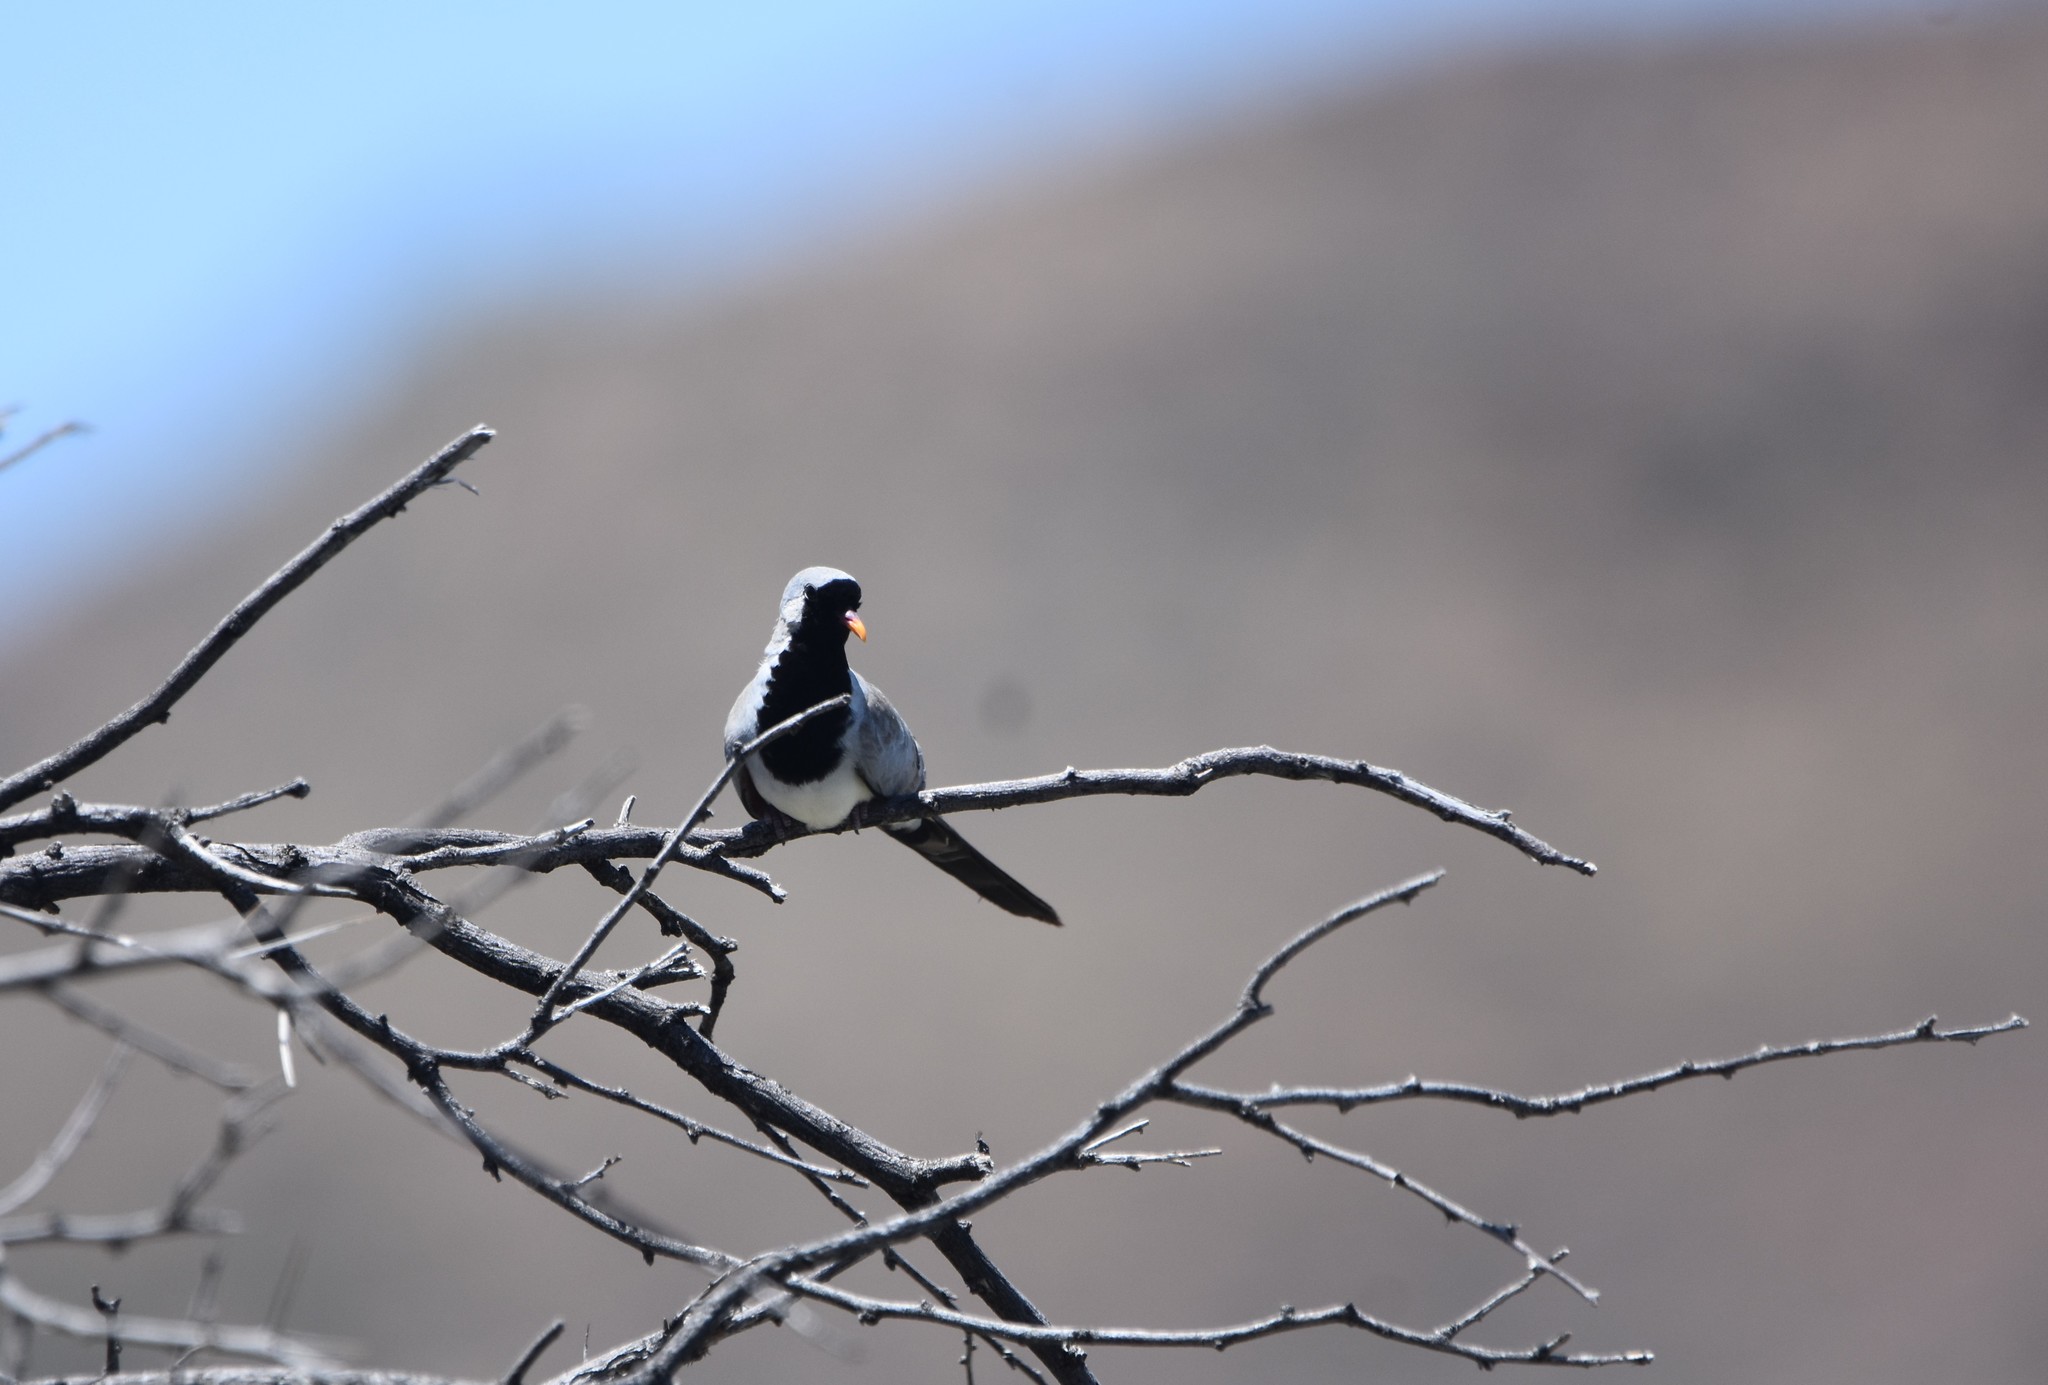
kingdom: Animalia
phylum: Chordata
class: Aves
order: Columbiformes
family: Columbidae
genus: Oena
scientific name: Oena capensis
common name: Namaqua dove
